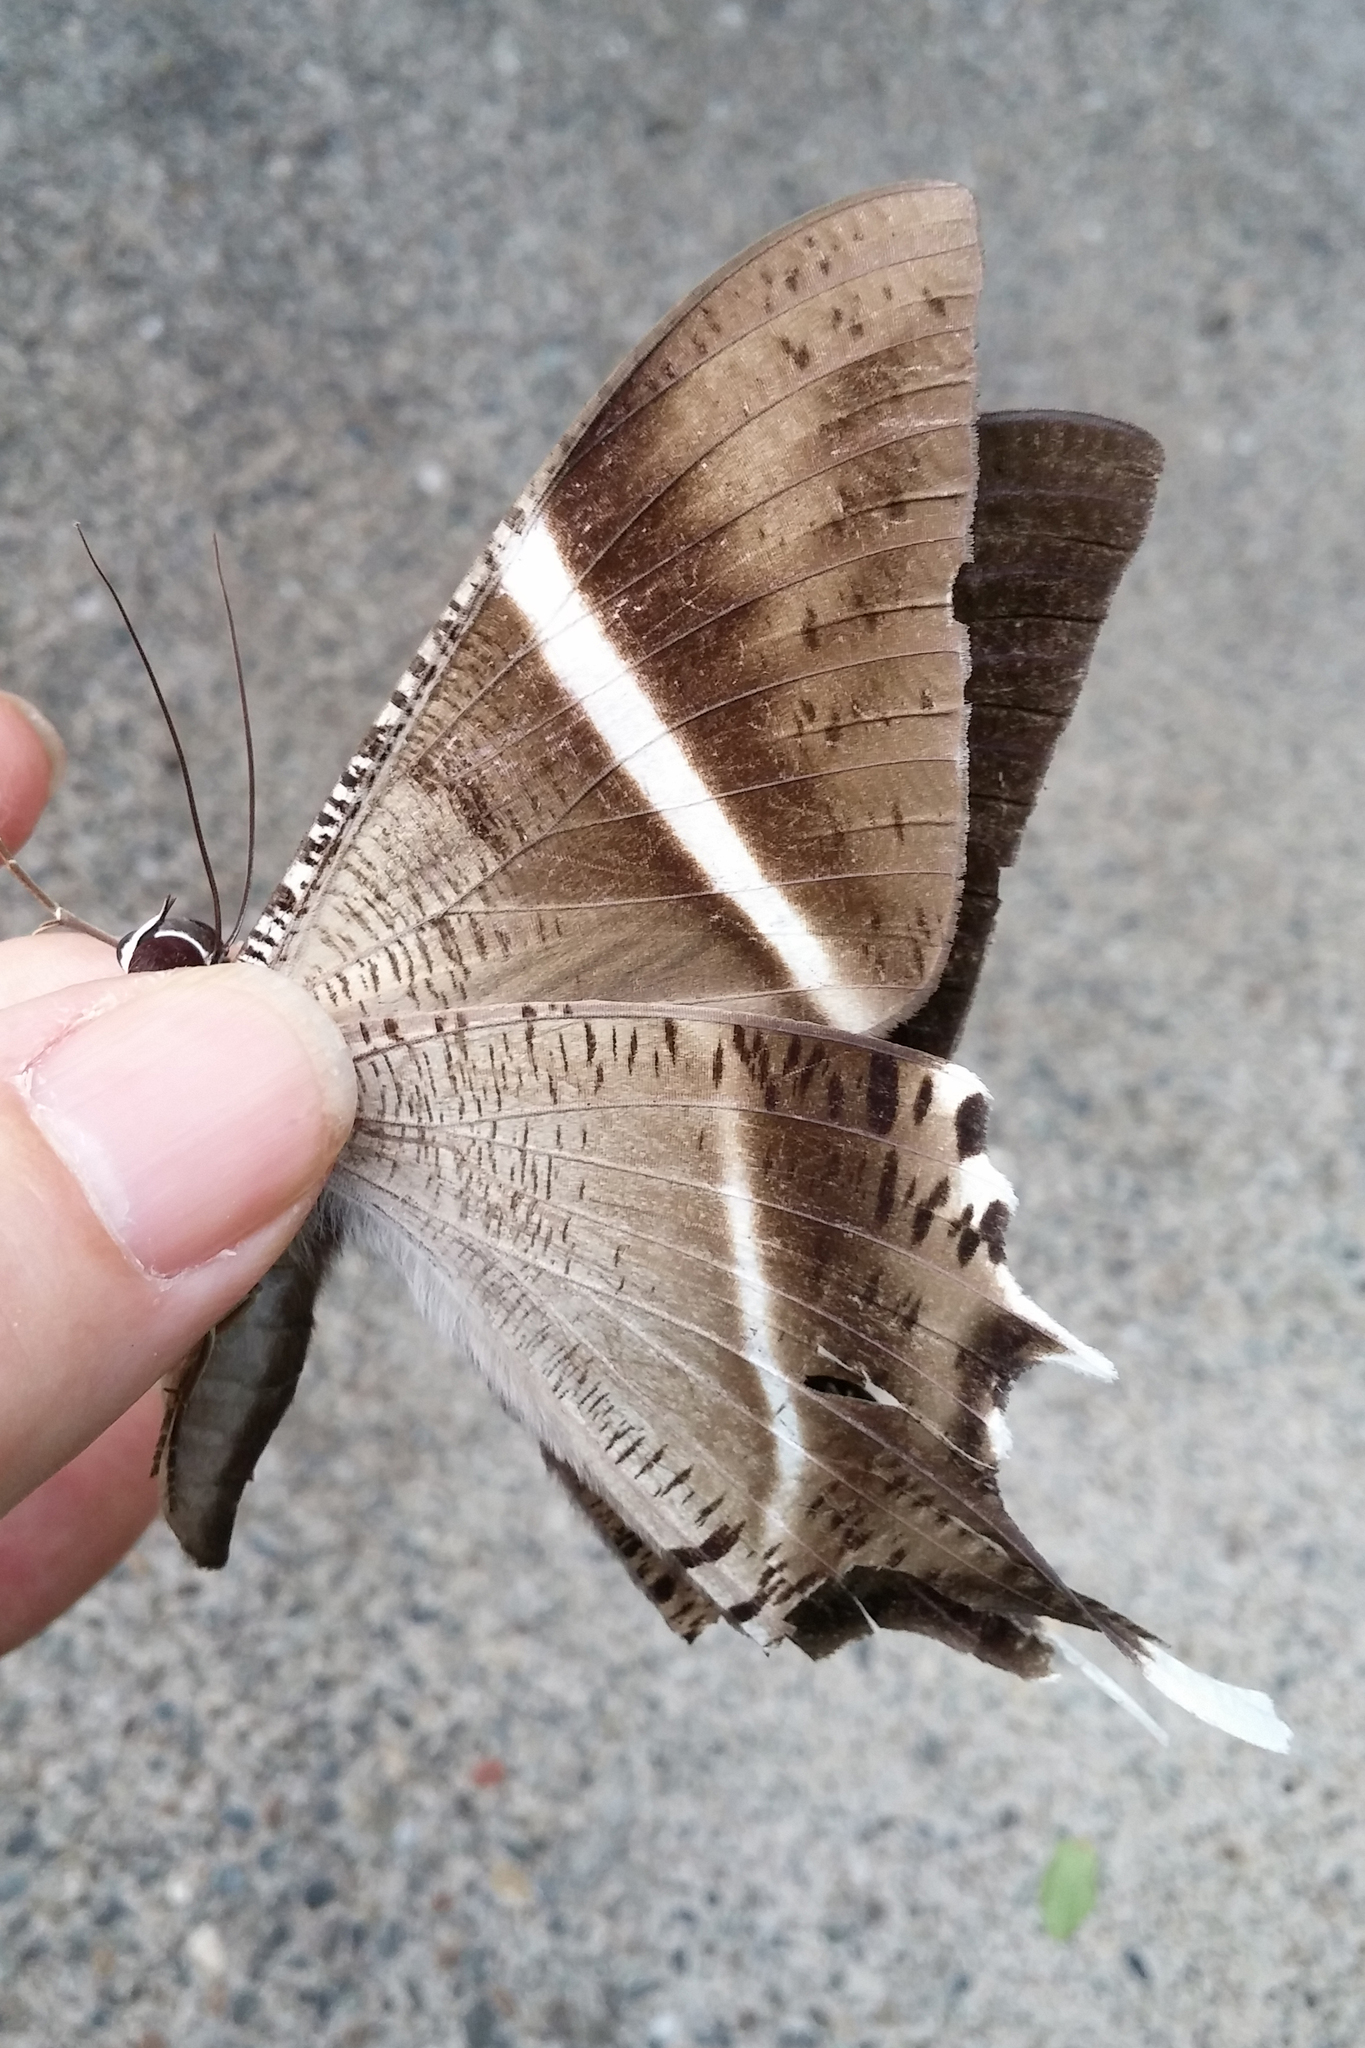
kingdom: Animalia
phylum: Arthropoda
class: Insecta
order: Lepidoptera
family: Uraniidae
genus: Lyssa
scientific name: Lyssa macleayi
